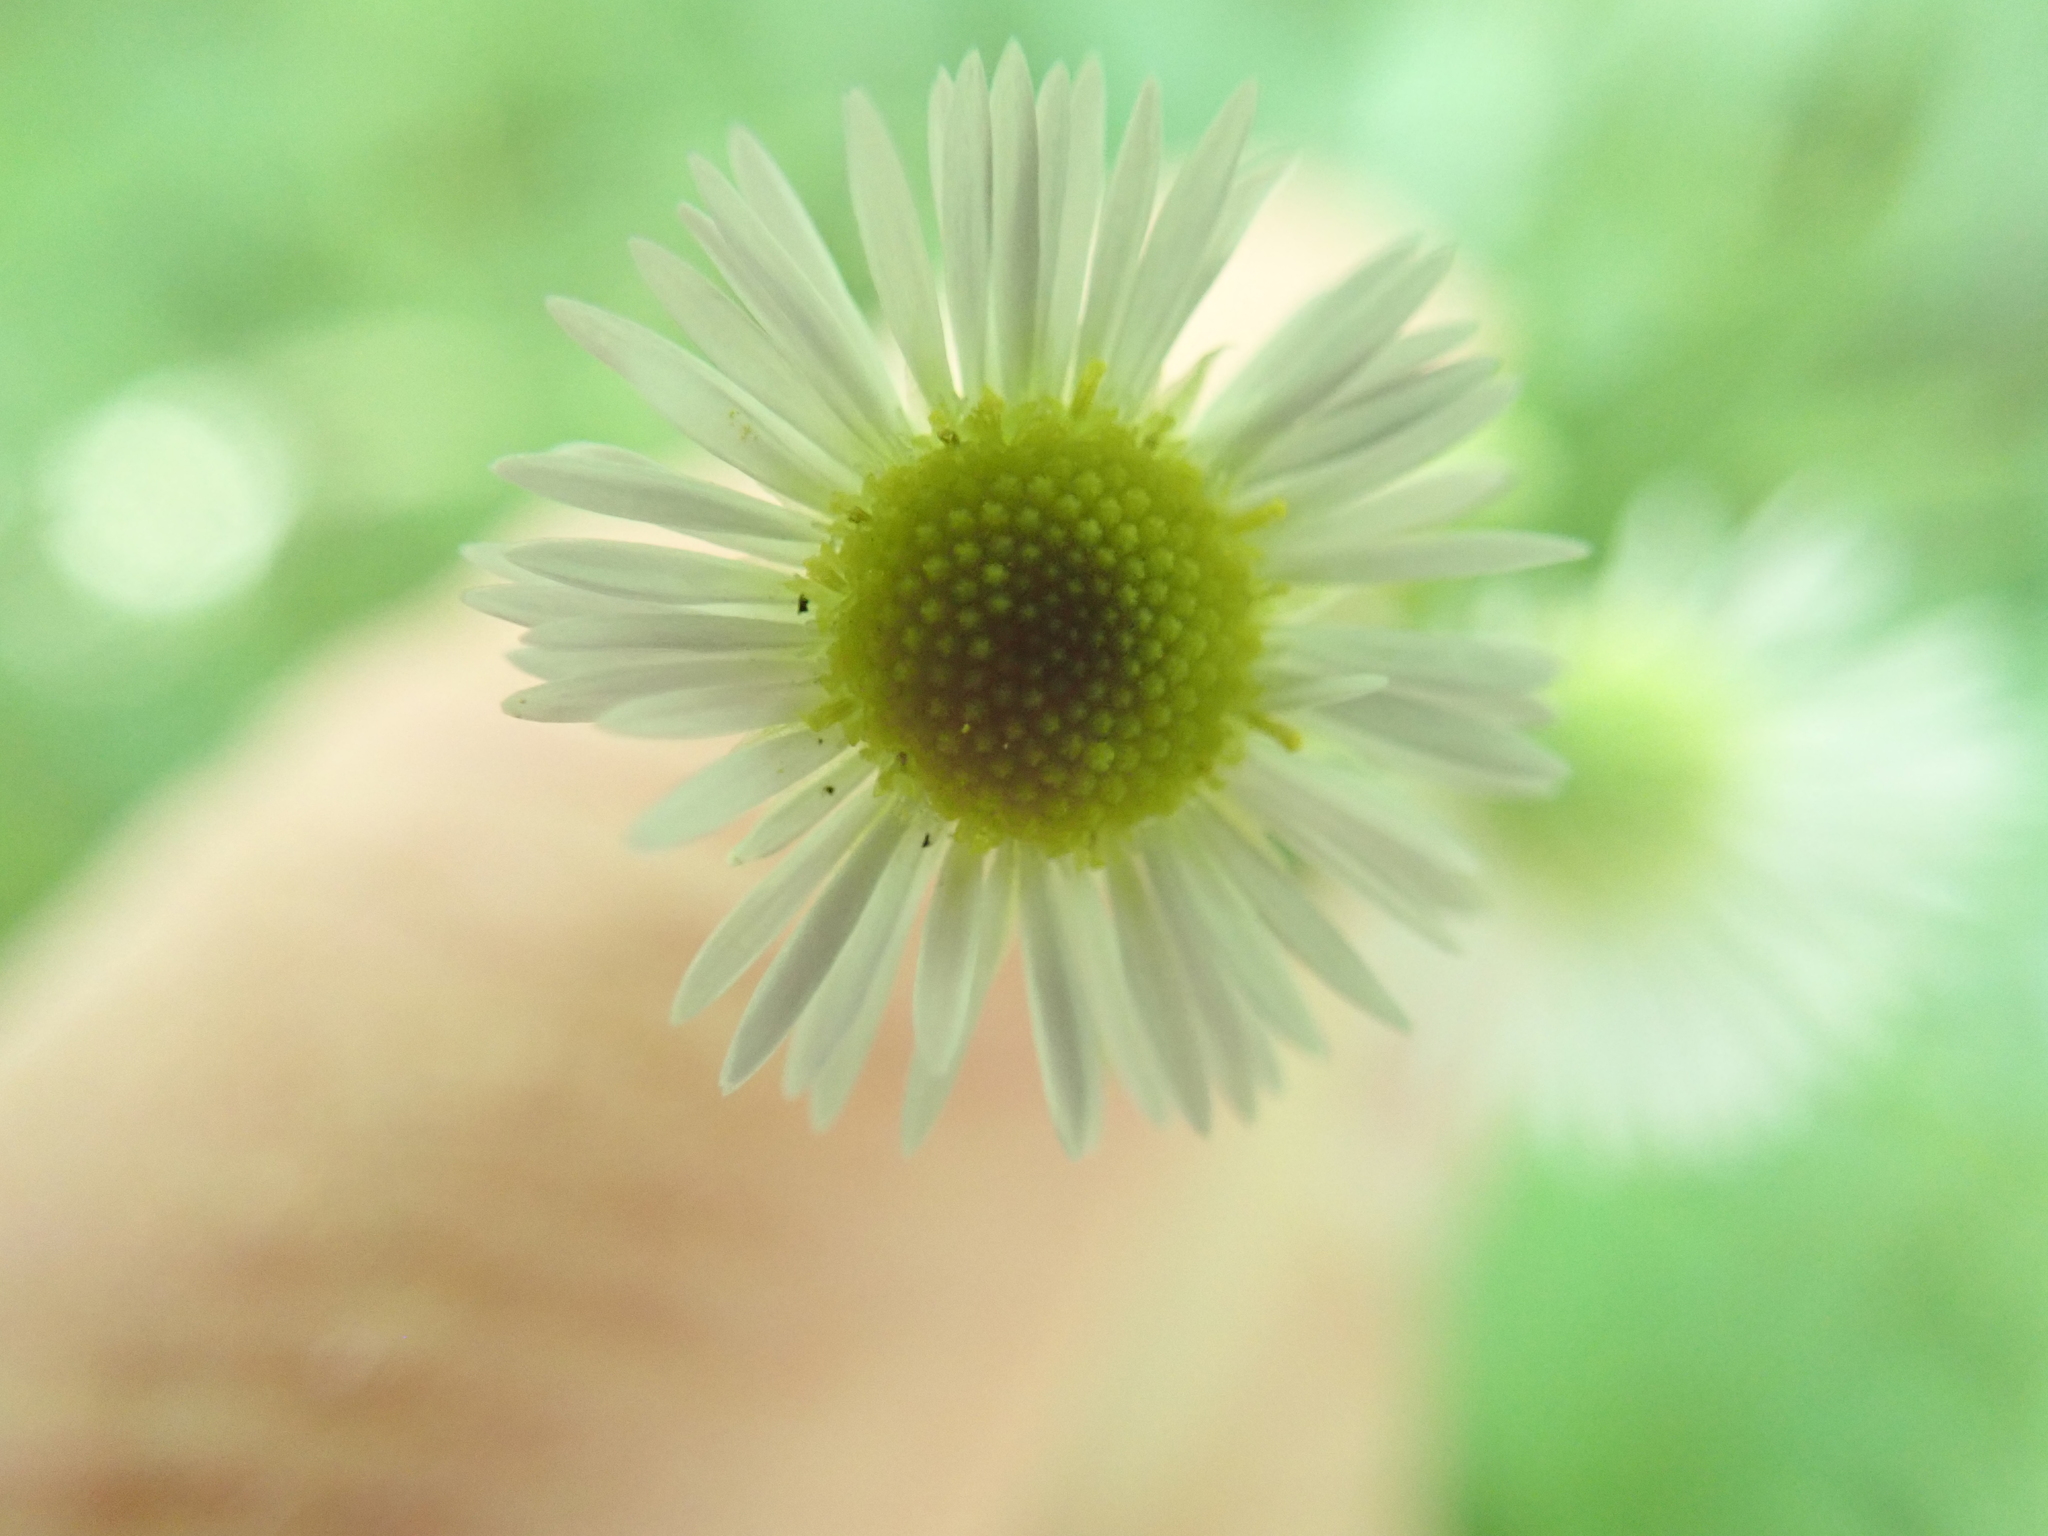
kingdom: Plantae
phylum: Tracheophyta
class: Magnoliopsida
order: Asterales
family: Asteraceae
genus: Erigeron
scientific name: Erigeron strigosus
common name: Common eastern fleabane
